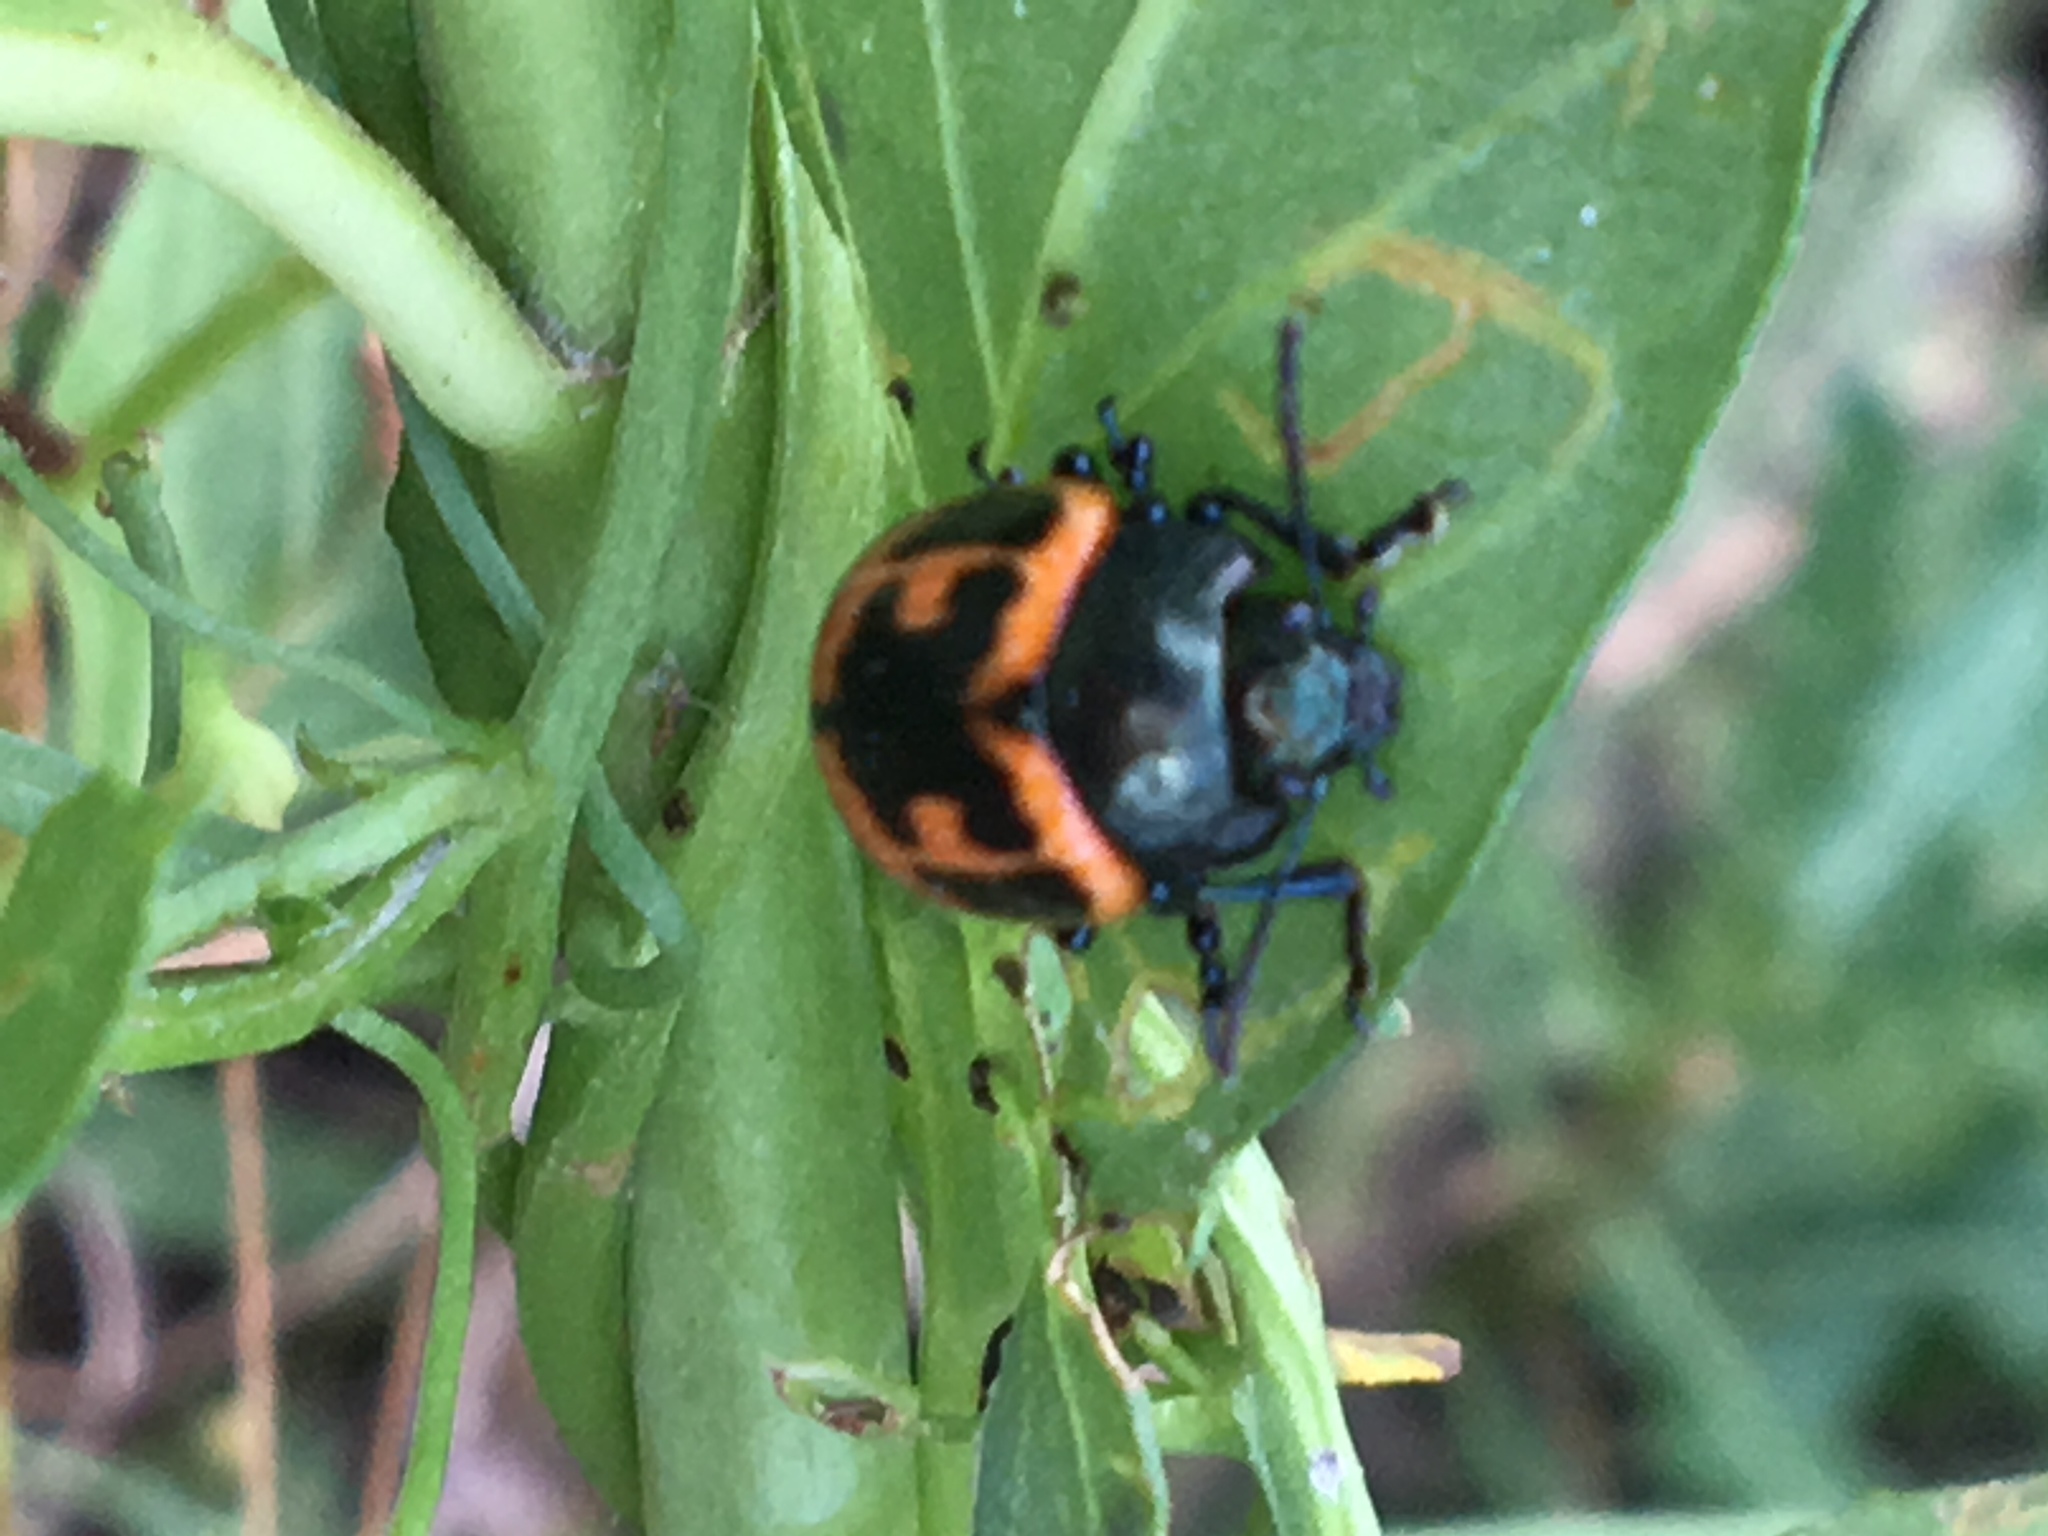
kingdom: Animalia
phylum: Arthropoda
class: Insecta
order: Coleoptera
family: Chrysomelidae
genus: Labidomera
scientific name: Labidomera clivicollis
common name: Swamp milkweed leaf beetle
